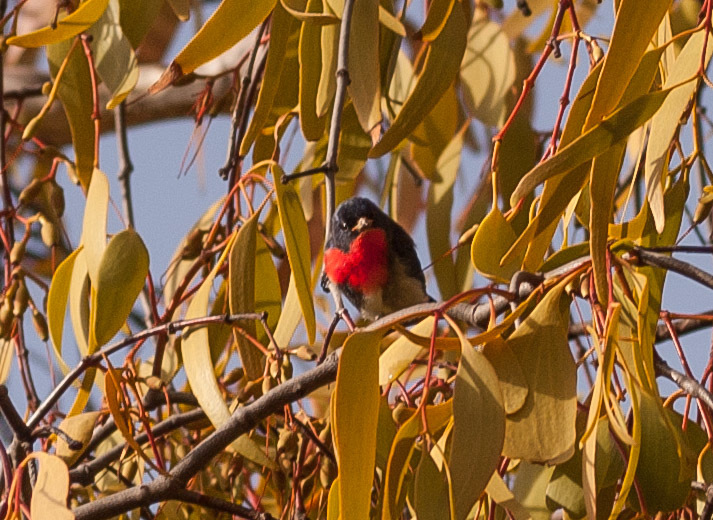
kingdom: Animalia
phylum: Chordata
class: Aves
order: Passeriformes
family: Dicaeidae
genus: Dicaeum
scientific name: Dicaeum hirundinaceum
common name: Mistletoebird
